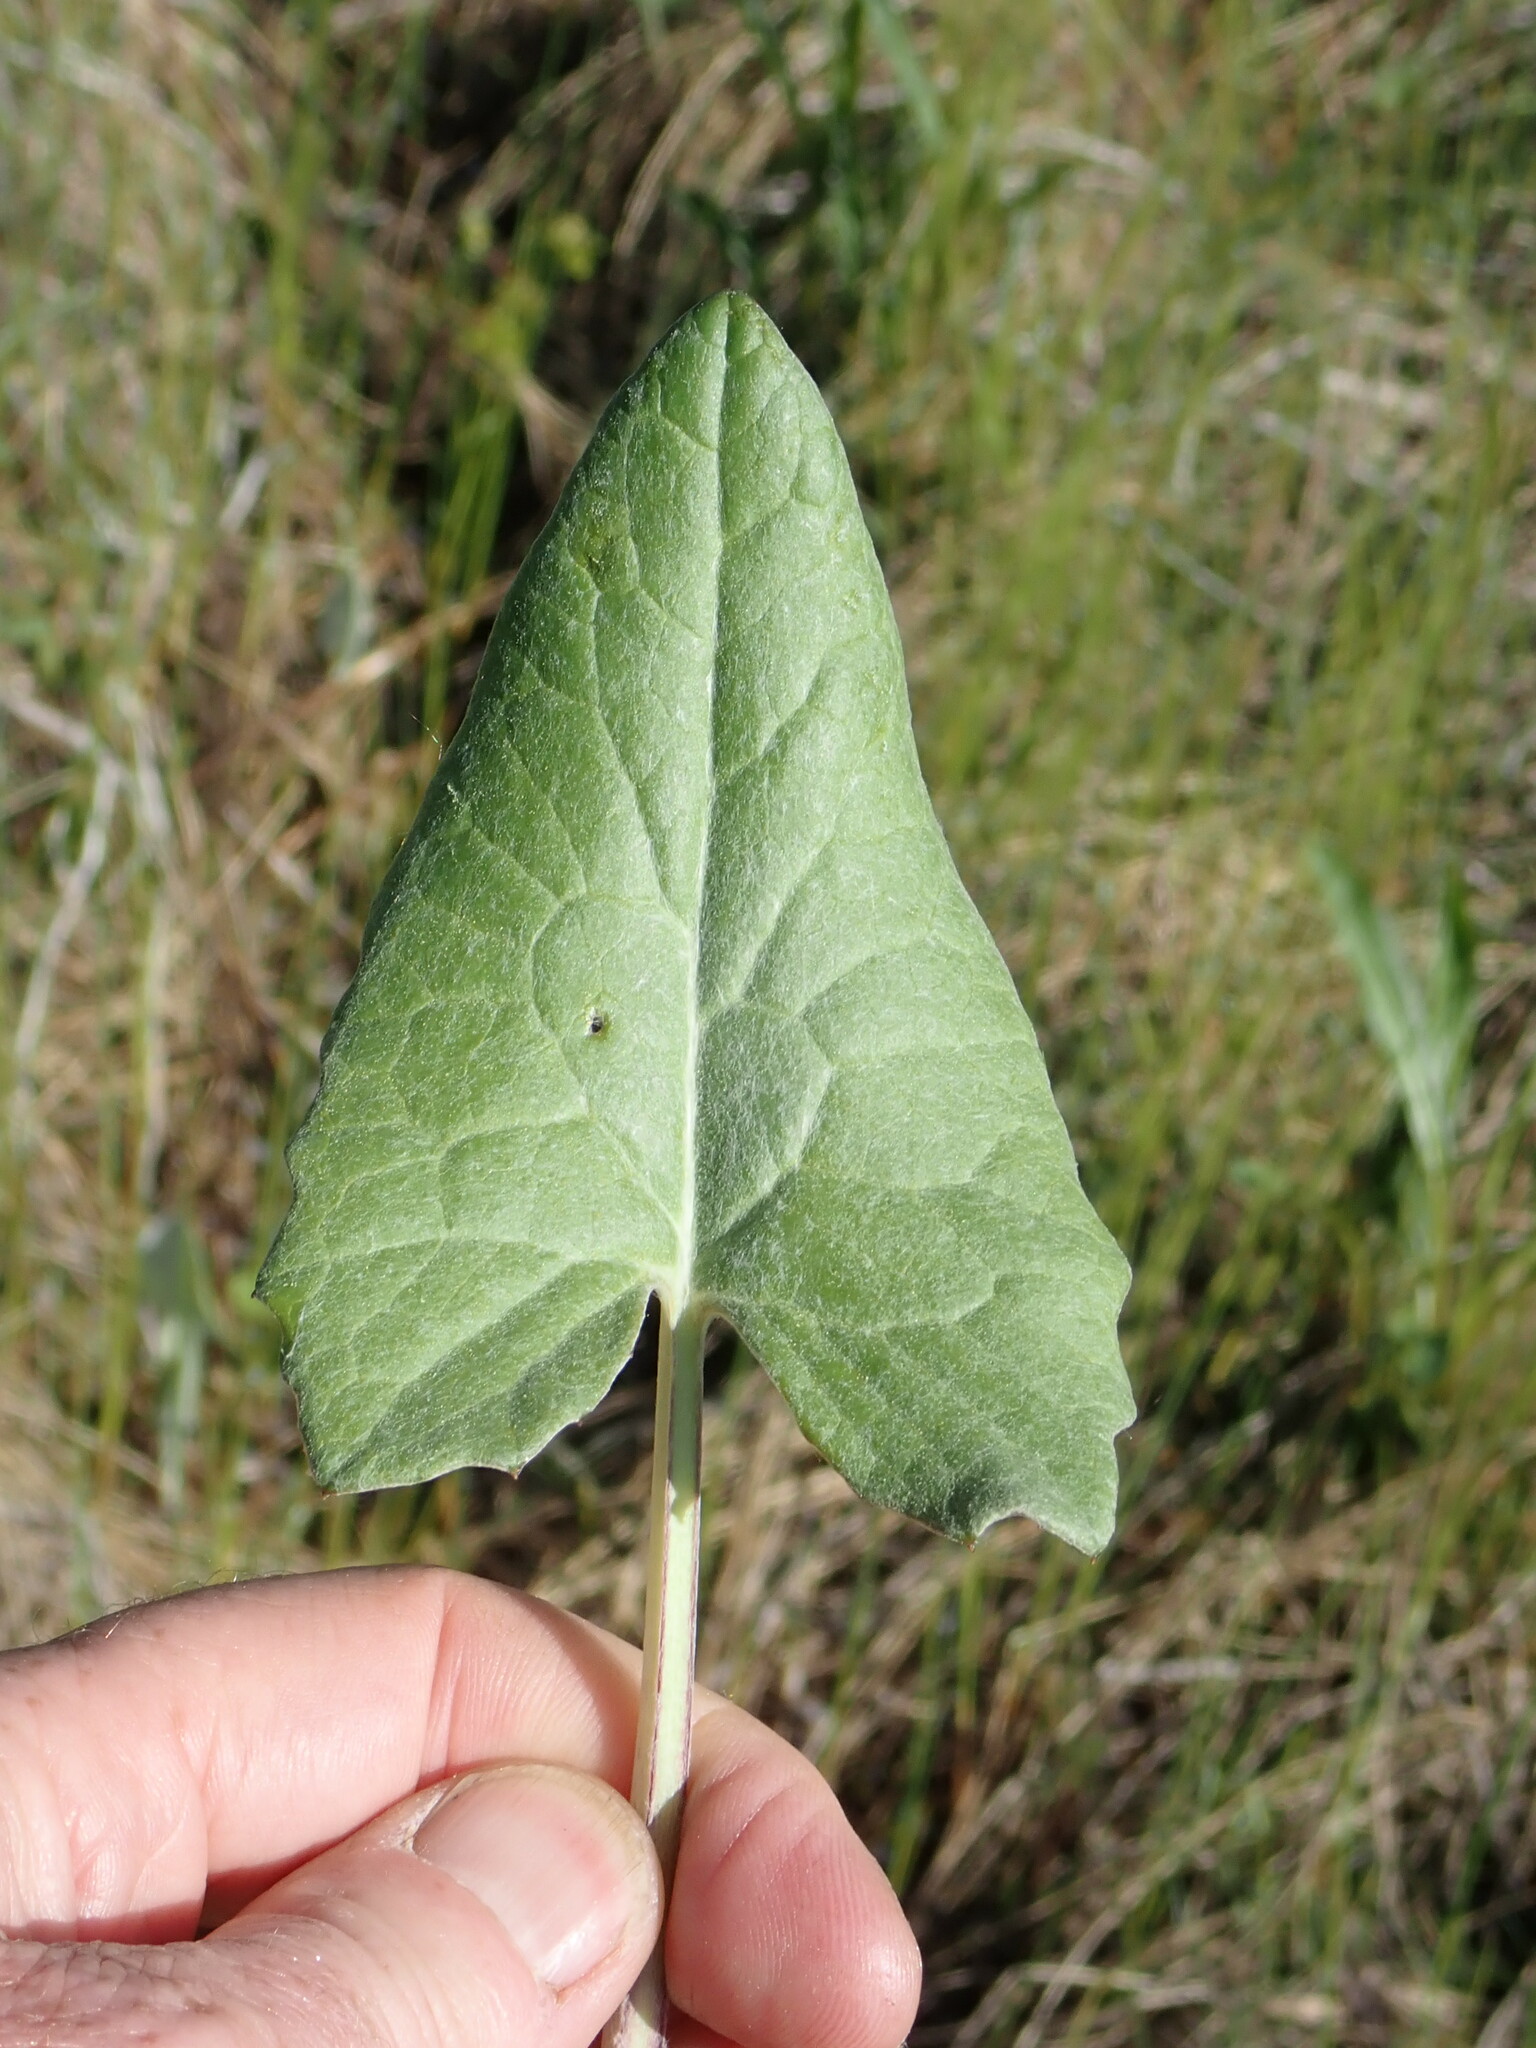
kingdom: Plantae
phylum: Tracheophyta
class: Magnoliopsida
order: Asterales
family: Asteraceae
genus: Petasites
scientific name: Petasites frigidus
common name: Arctic butterbur
